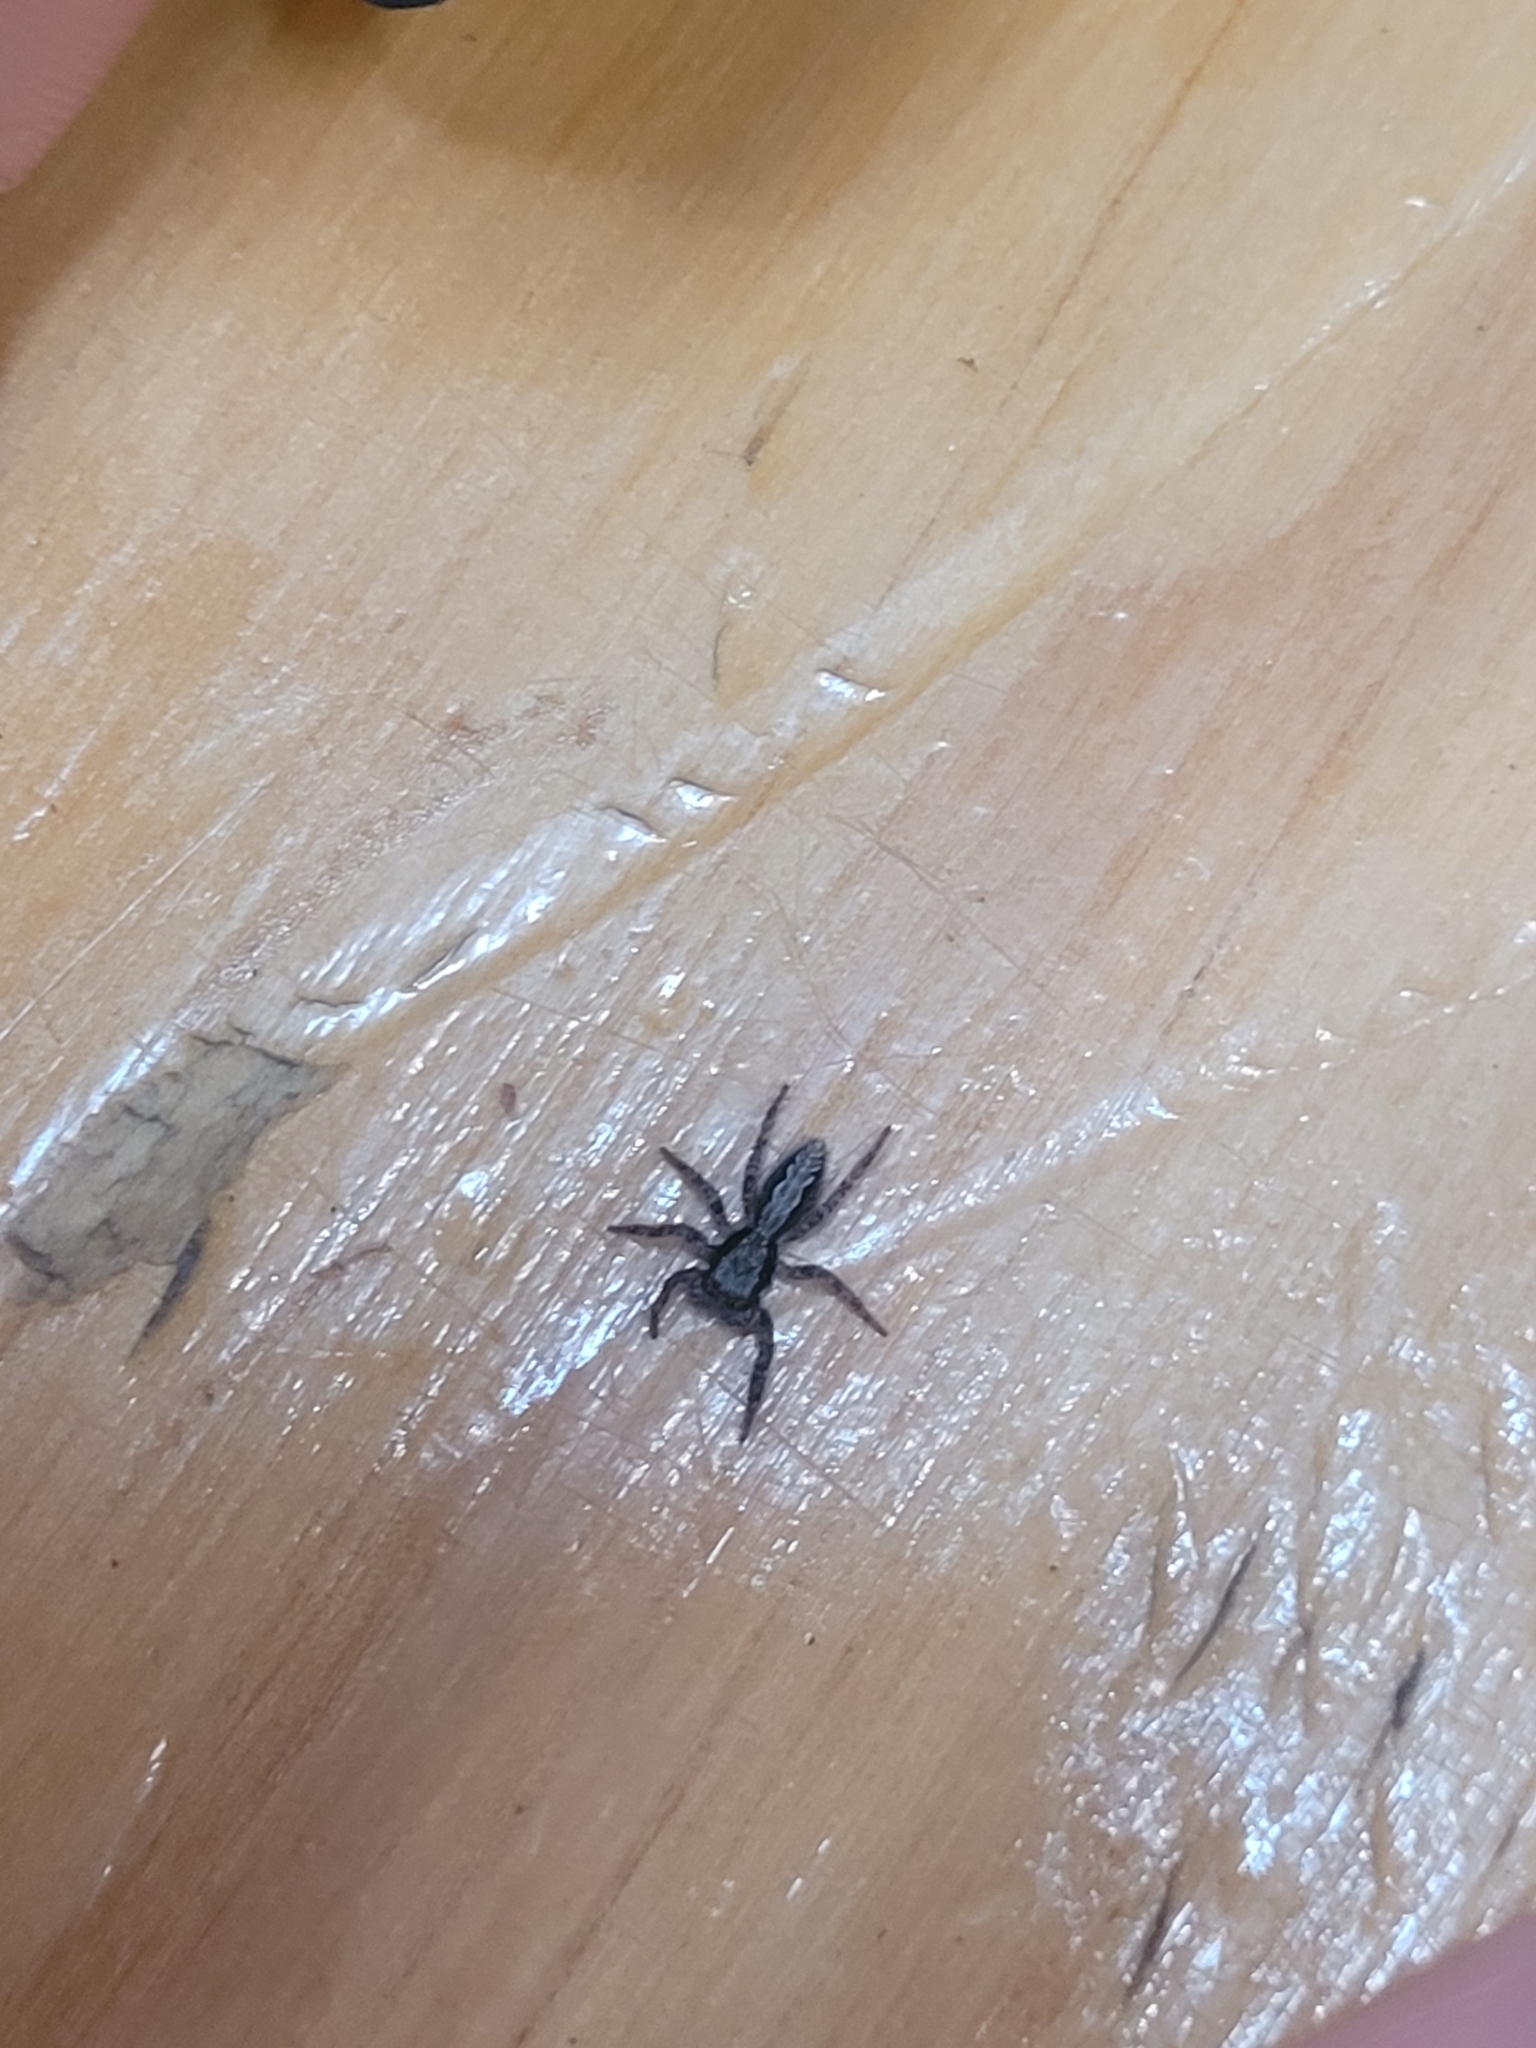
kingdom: Animalia
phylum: Arthropoda
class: Arachnida
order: Araneae
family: Salticidae
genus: Platycryptus
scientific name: Platycryptus californicus
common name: Jumping spiders
